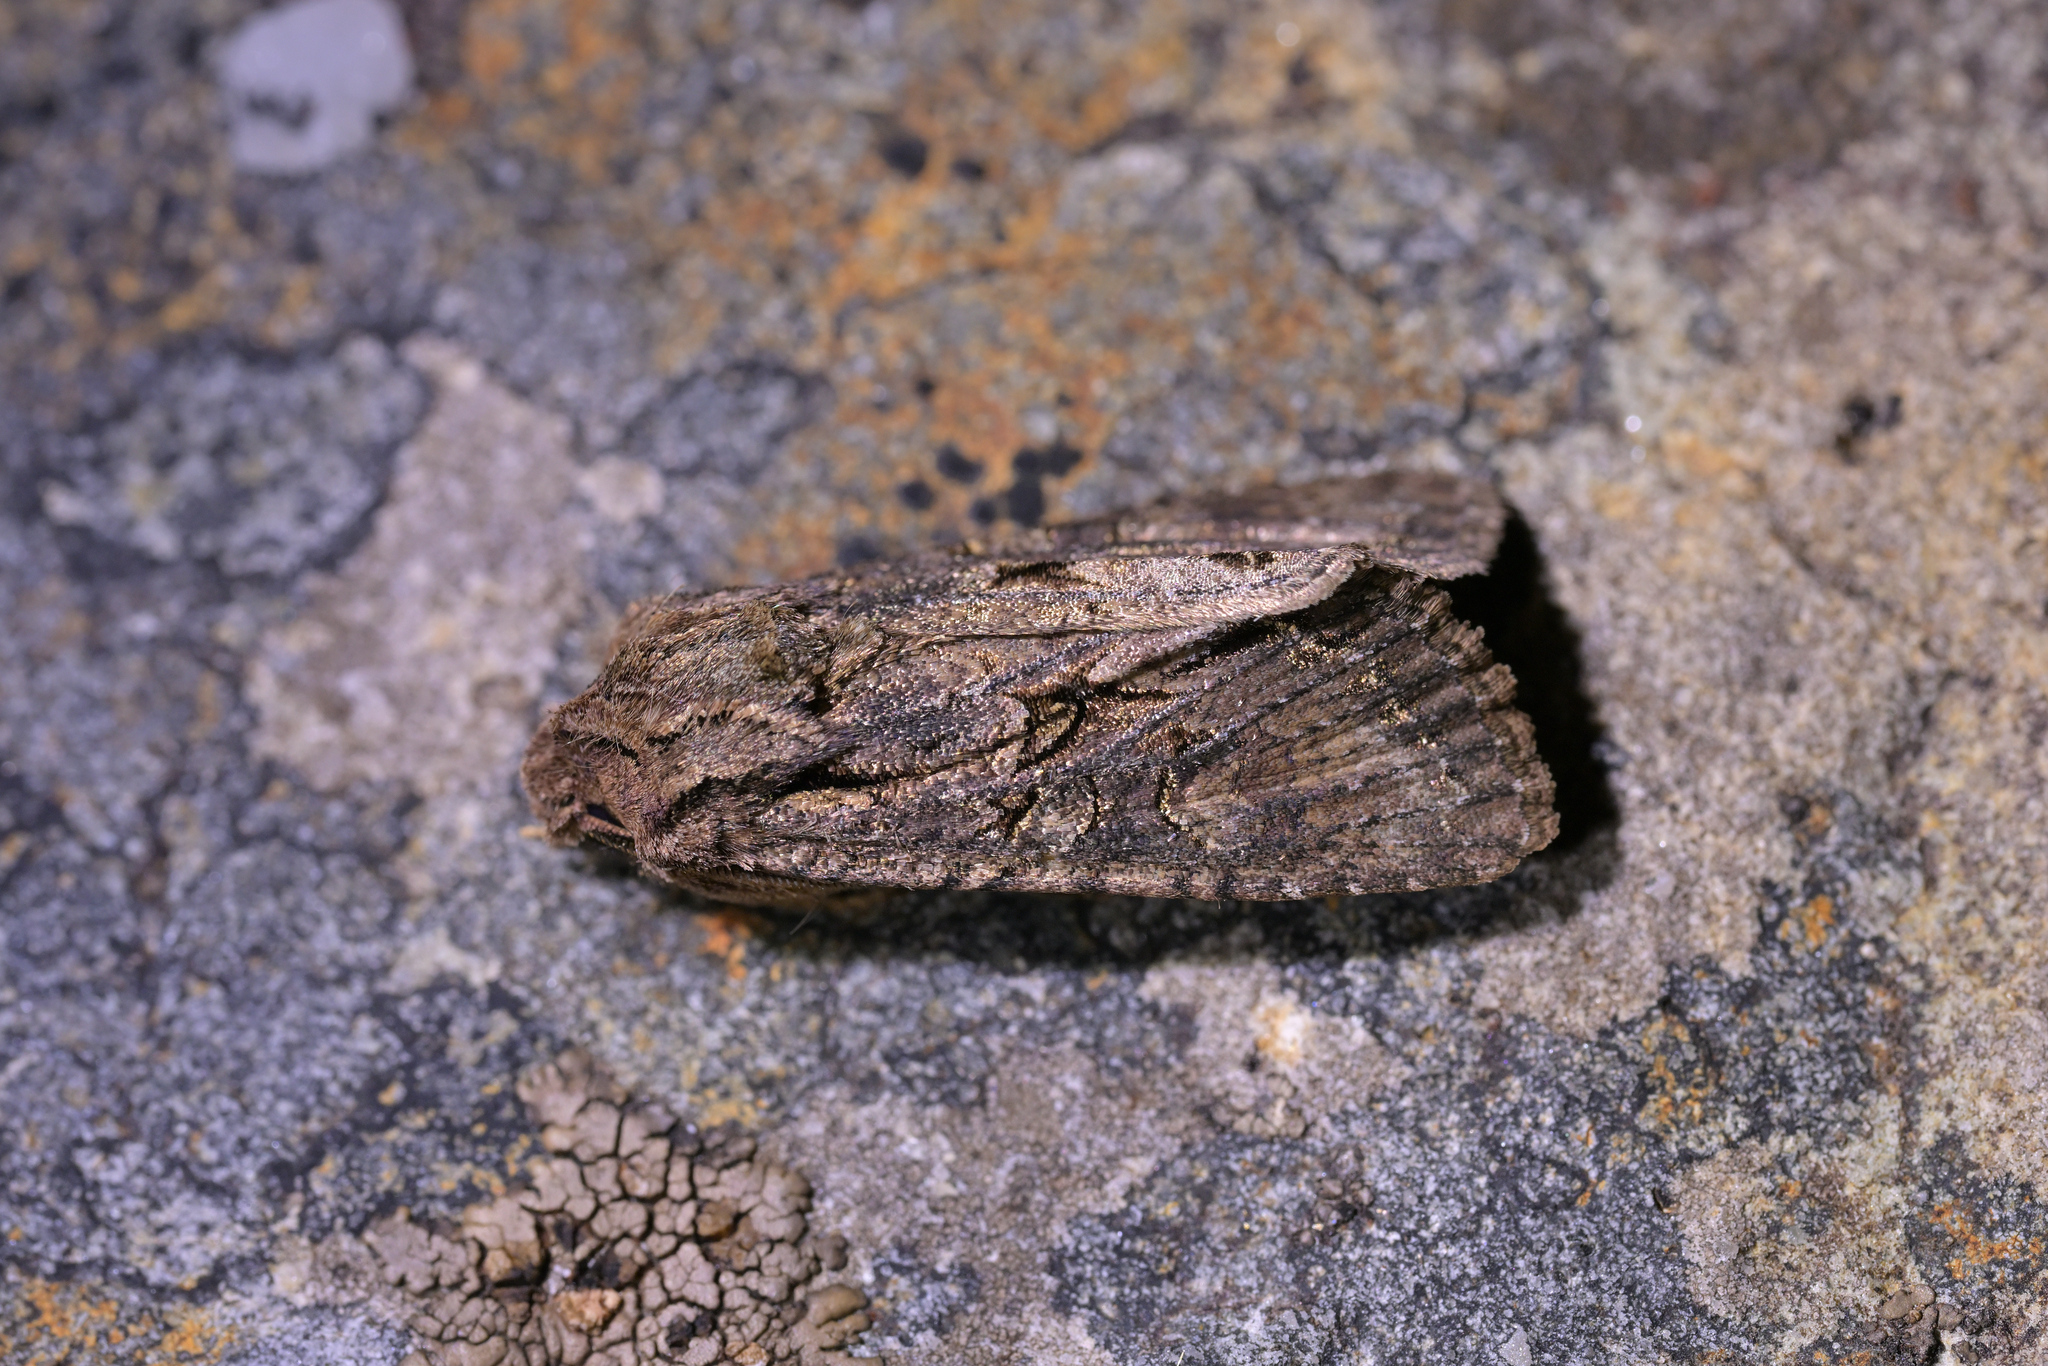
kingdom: Animalia
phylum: Arthropoda
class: Insecta
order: Lepidoptera
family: Noctuidae
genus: Ichneutica
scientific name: Ichneutica mutans
